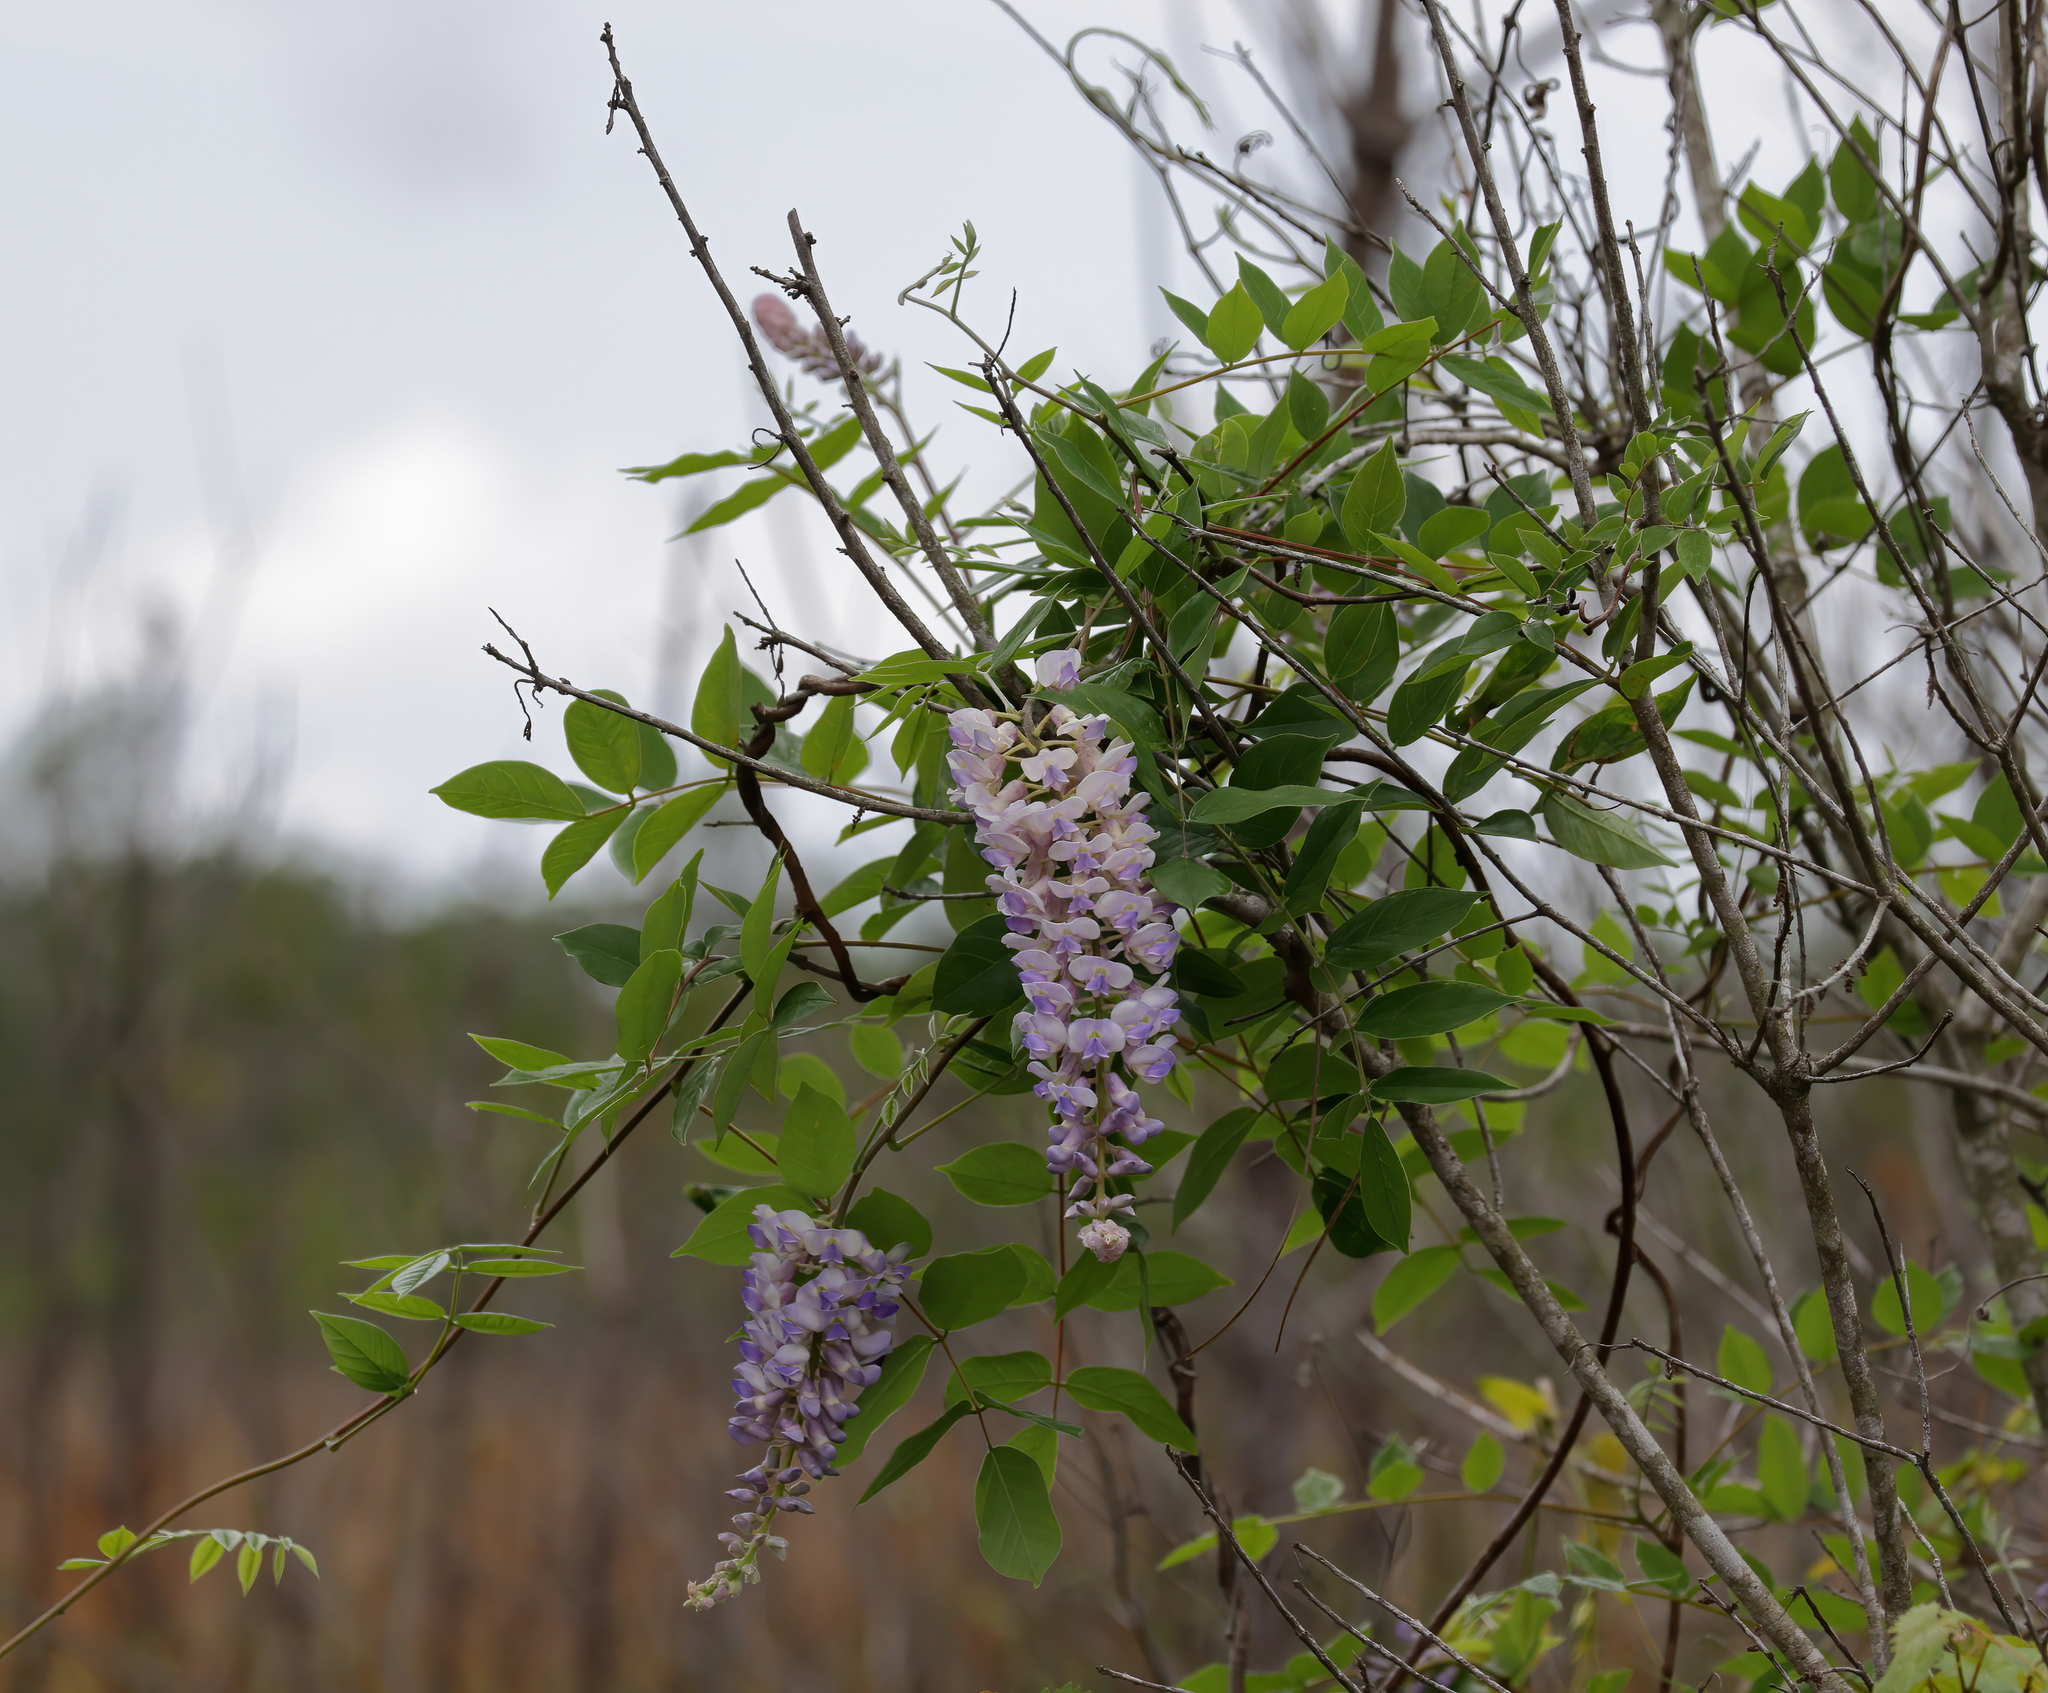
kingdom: Plantae
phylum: Tracheophyta
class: Magnoliopsida
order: Fabales
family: Fabaceae
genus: Wisteria
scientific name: Wisteria frutescens
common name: American wisteria
